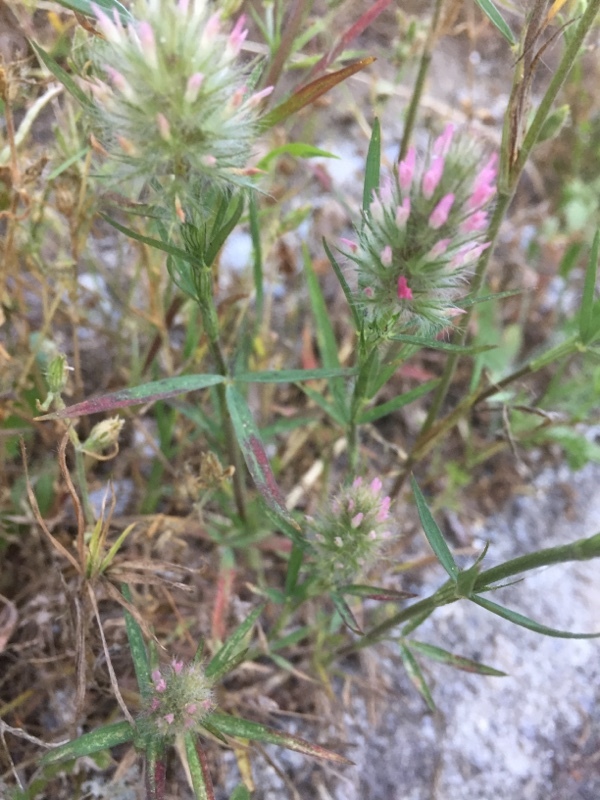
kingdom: Plantae
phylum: Tracheophyta
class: Magnoliopsida
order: Fabales
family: Fabaceae
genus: Trifolium
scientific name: Trifolium angustifolium
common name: Narrow clover
